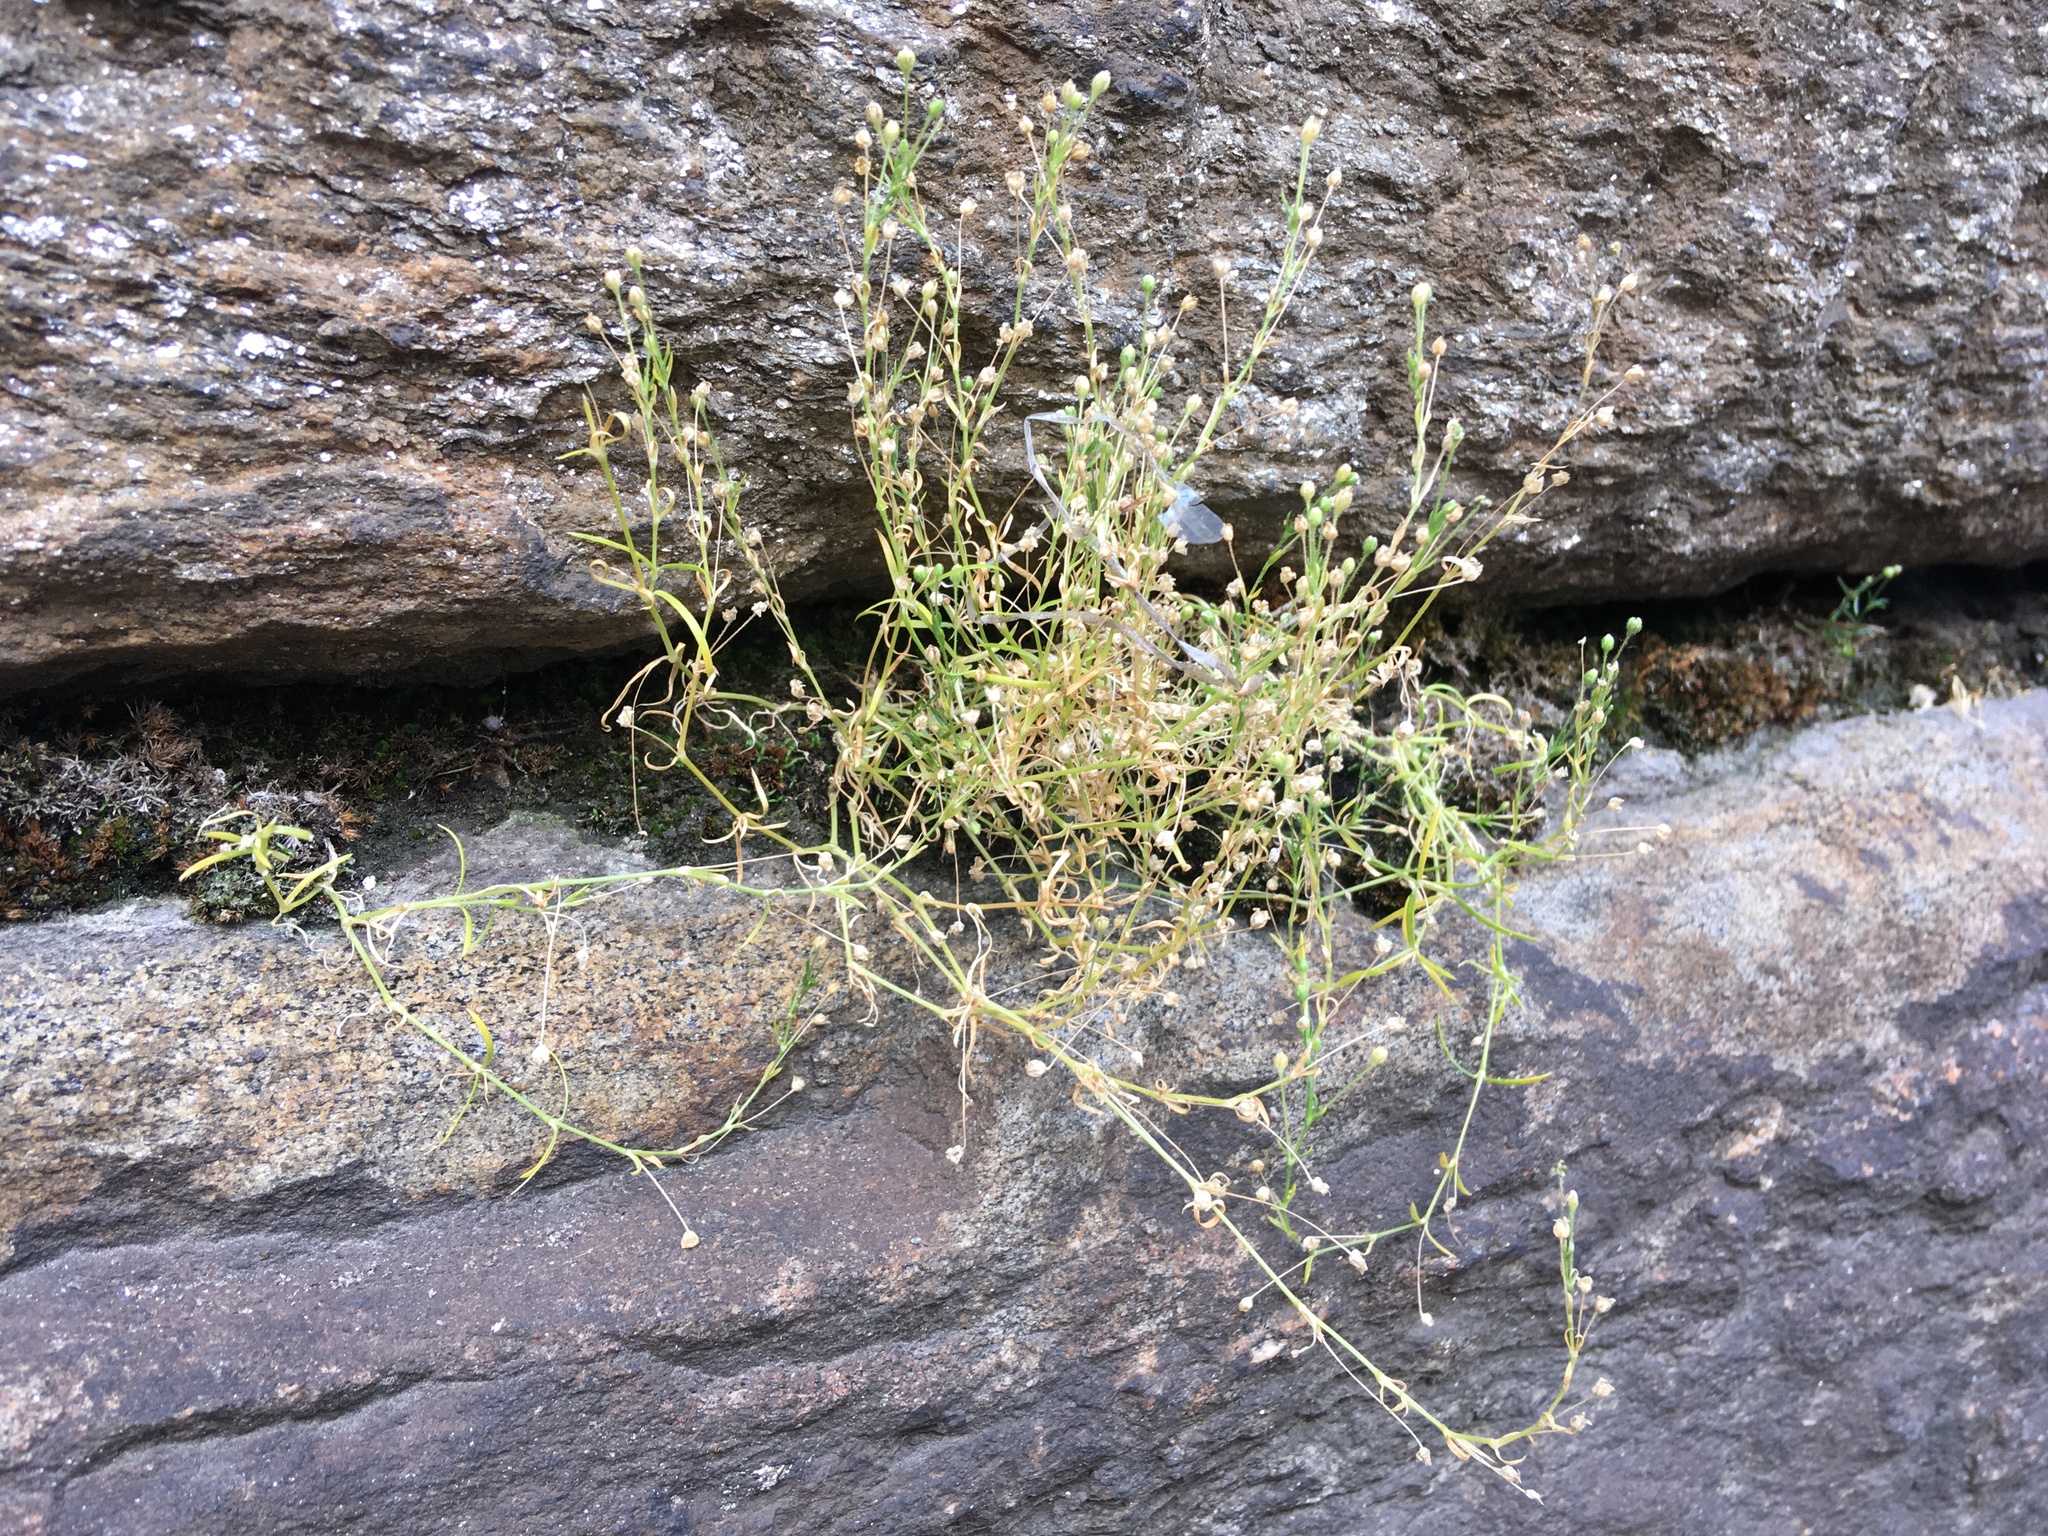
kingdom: Plantae
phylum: Tracheophyta
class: Magnoliopsida
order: Caryophyllales
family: Caryophyllaceae
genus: Sagina
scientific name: Sagina japonica
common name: Japanese pearlwort
